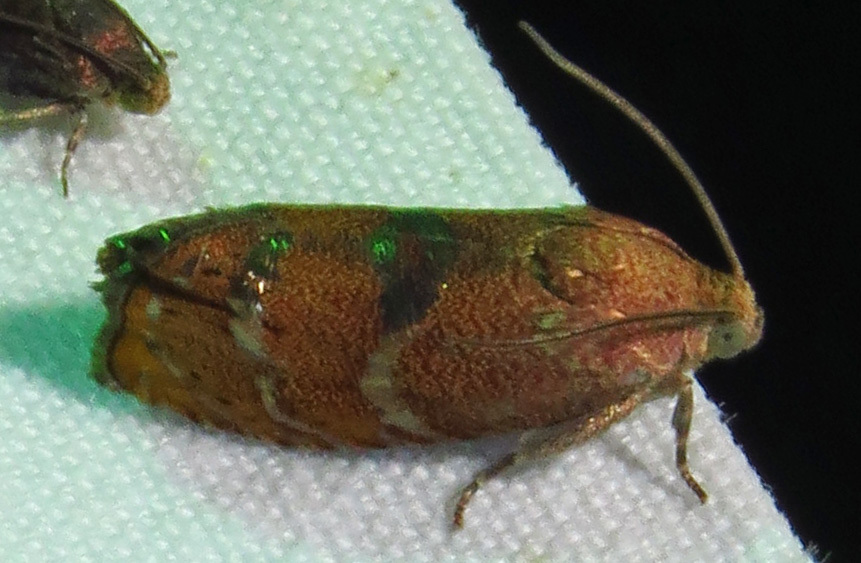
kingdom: Animalia
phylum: Arthropoda
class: Insecta
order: Lepidoptera
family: Tortricidae
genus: Cydia
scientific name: Cydia latiferreana
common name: Filbertworm moth
